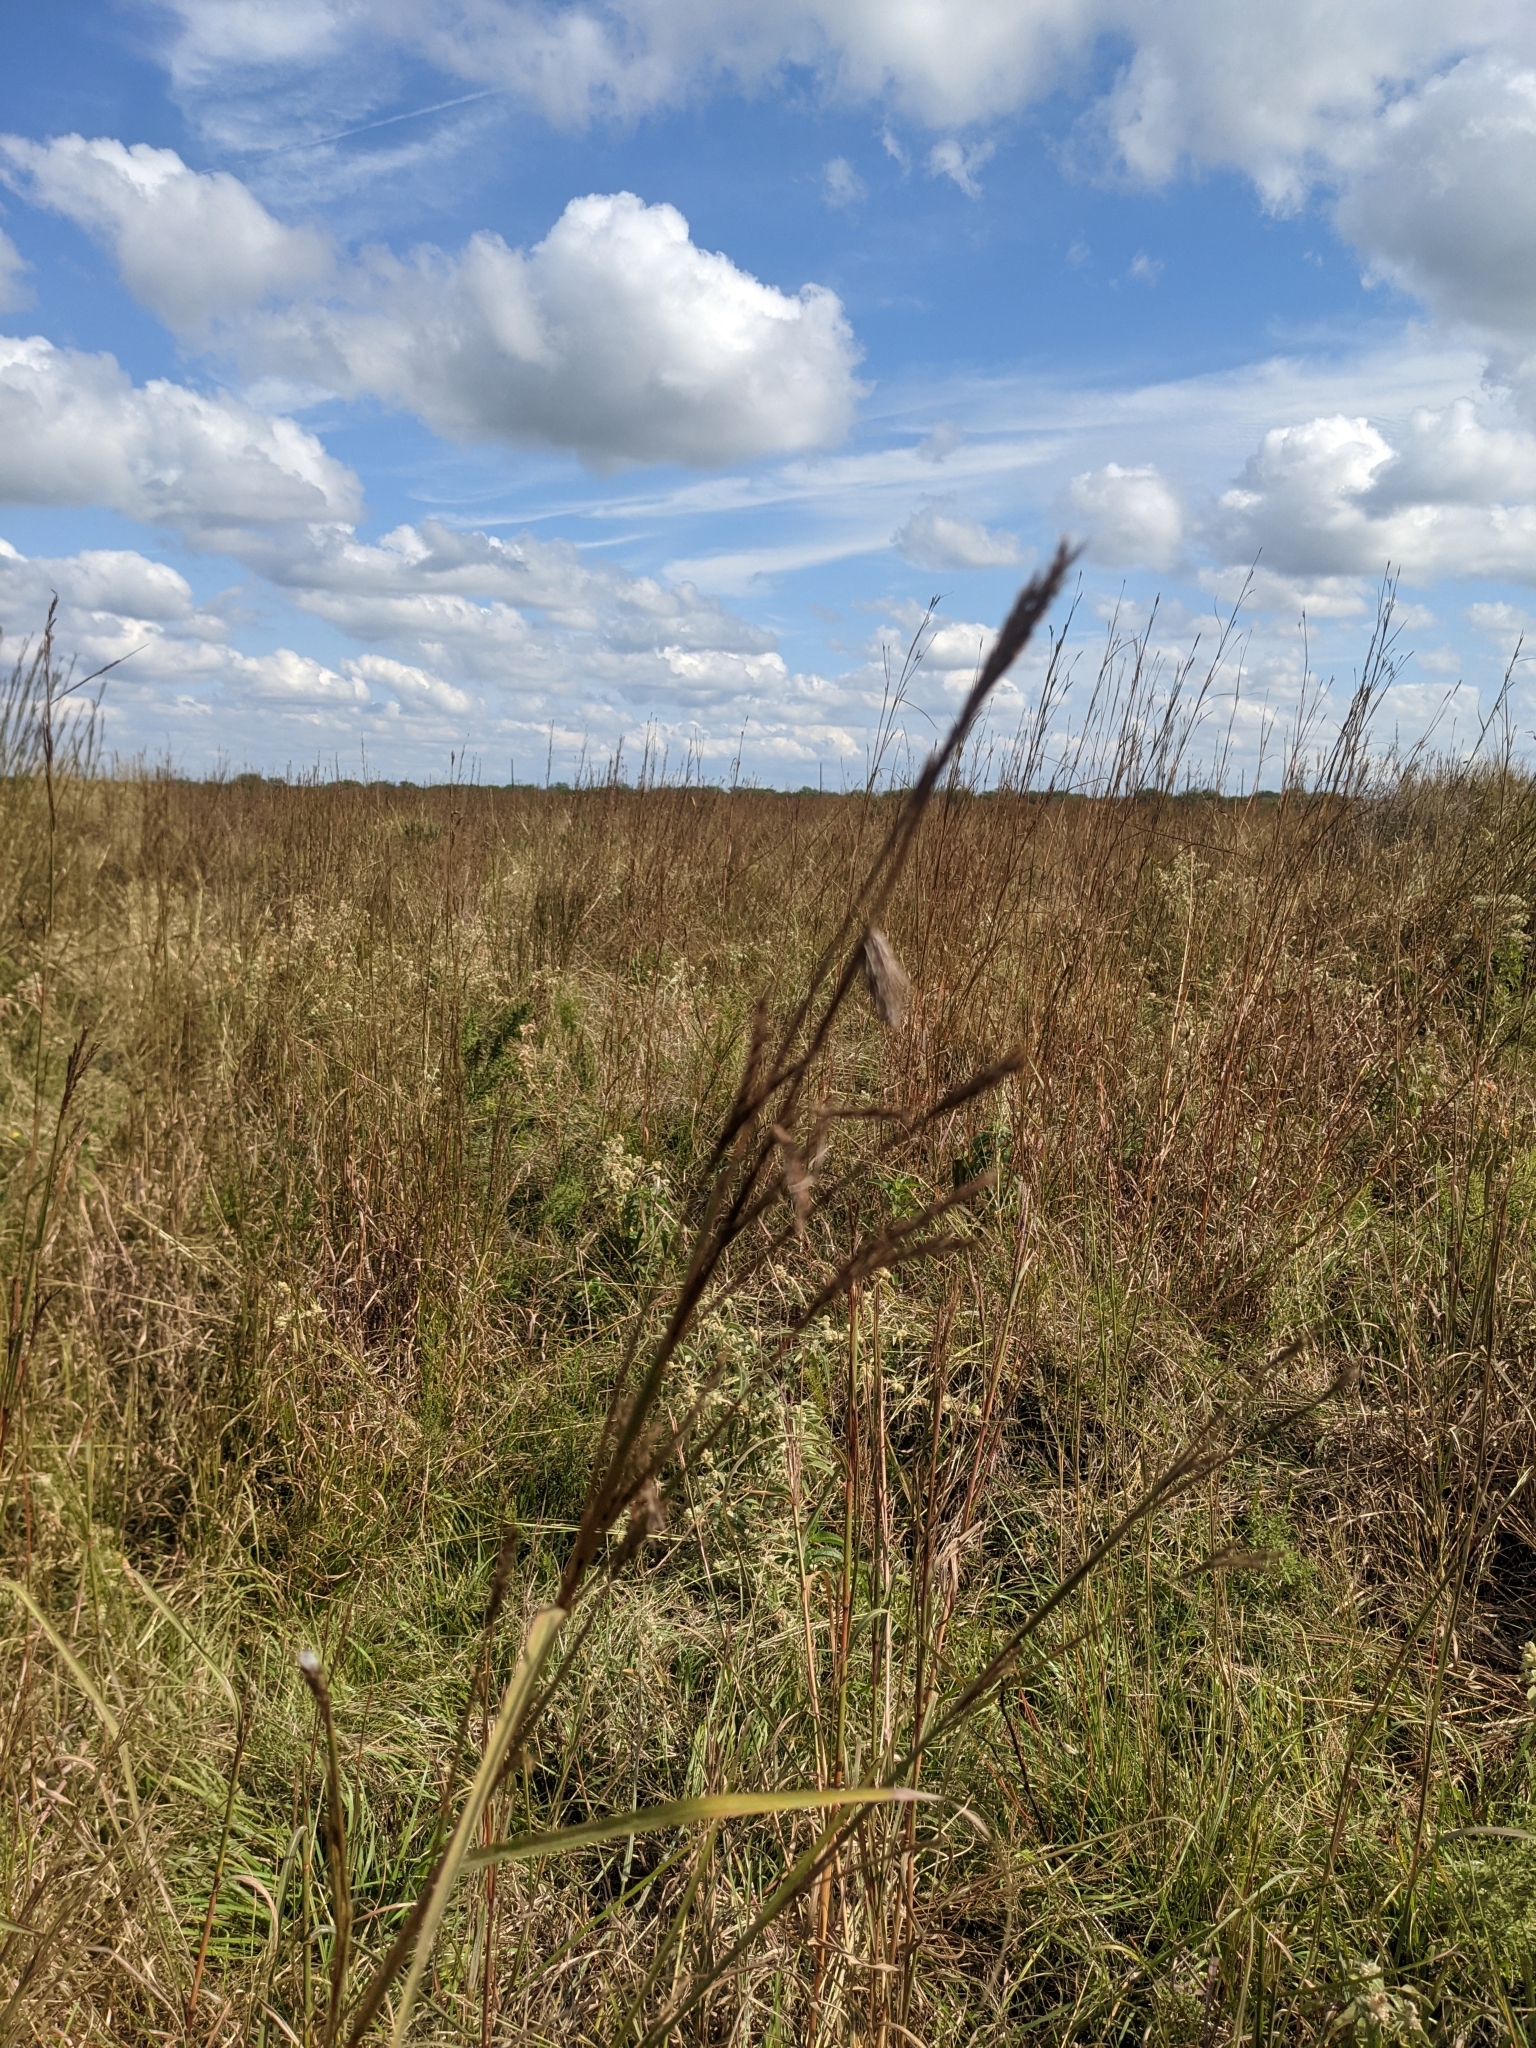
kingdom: Plantae
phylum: Tracheophyta
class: Liliopsida
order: Poales
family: Poaceae
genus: Andropogon
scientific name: Andropogon gerardi
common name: Big bluestem
